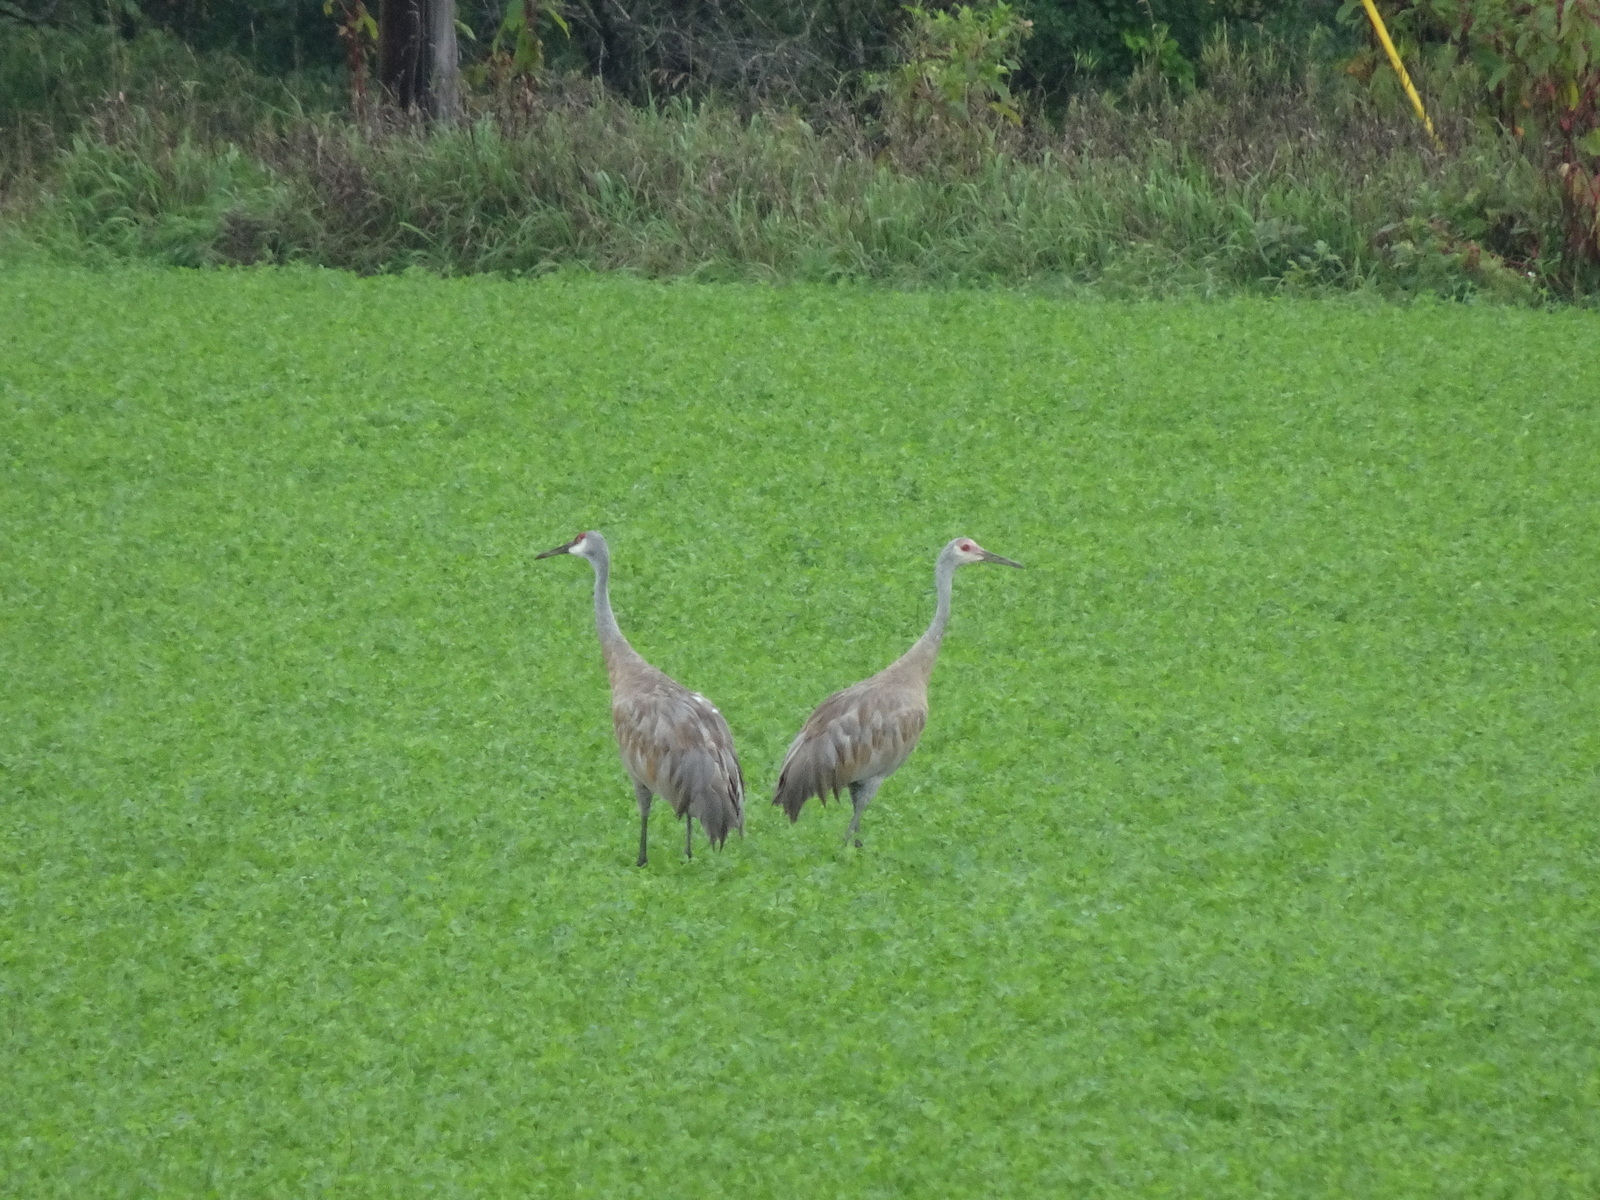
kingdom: Animalia
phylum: Chordata
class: Aves
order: Gruiformes
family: Gruidae
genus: Grus
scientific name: Grus canadensis
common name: Sandhill crane
